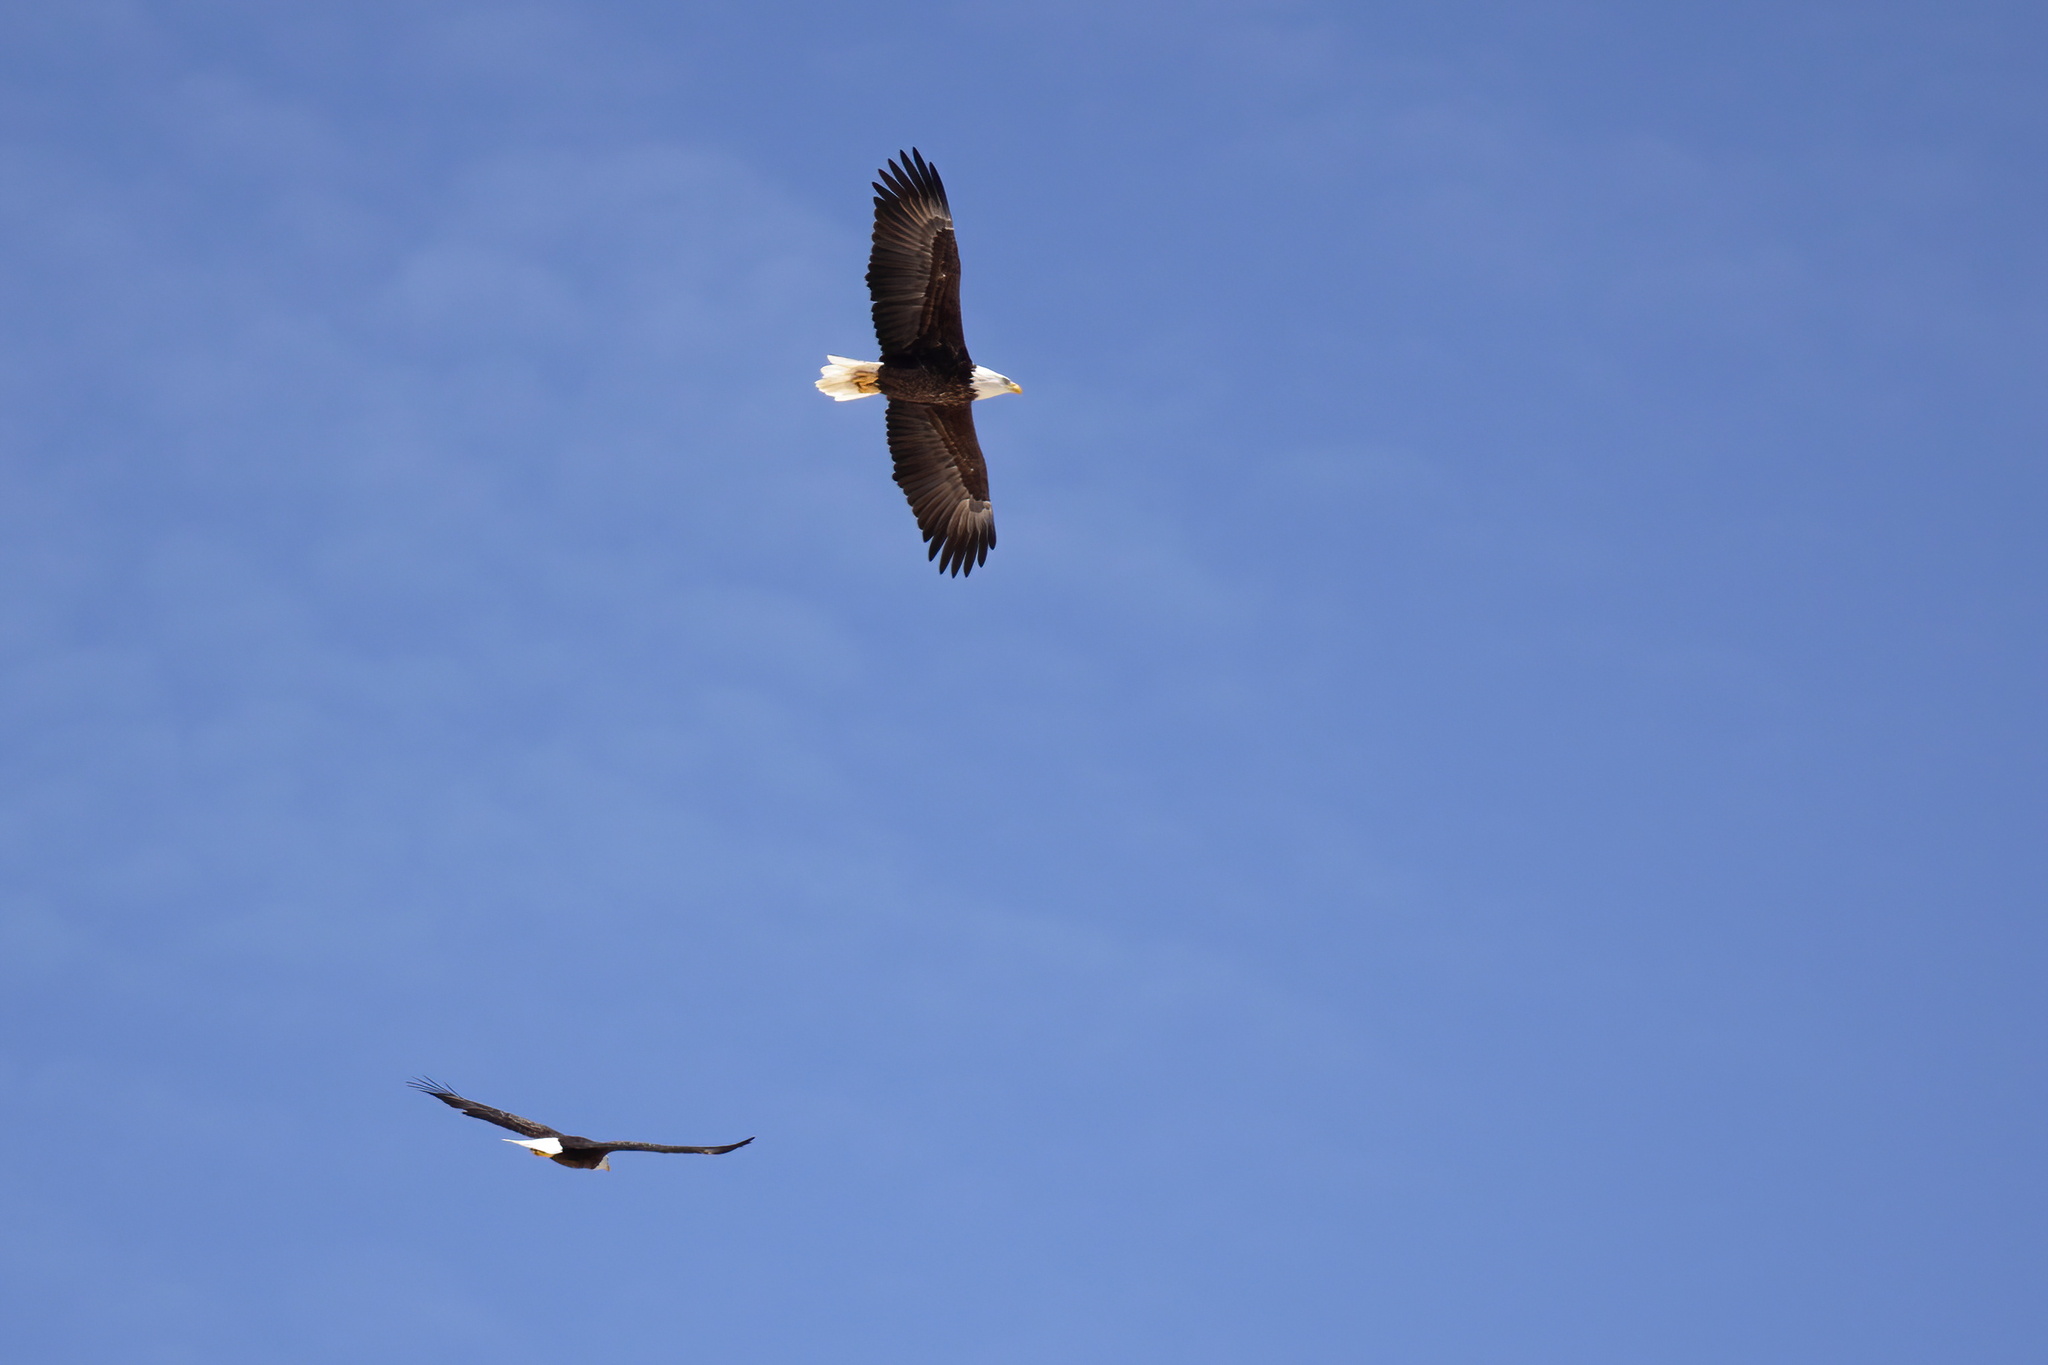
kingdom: Animalia
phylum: Chordata
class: Aves
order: Accipitriformes
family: Accipitridae
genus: Haliaeetus
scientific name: Haliaeetus leucocephalus
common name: Bald eagle
